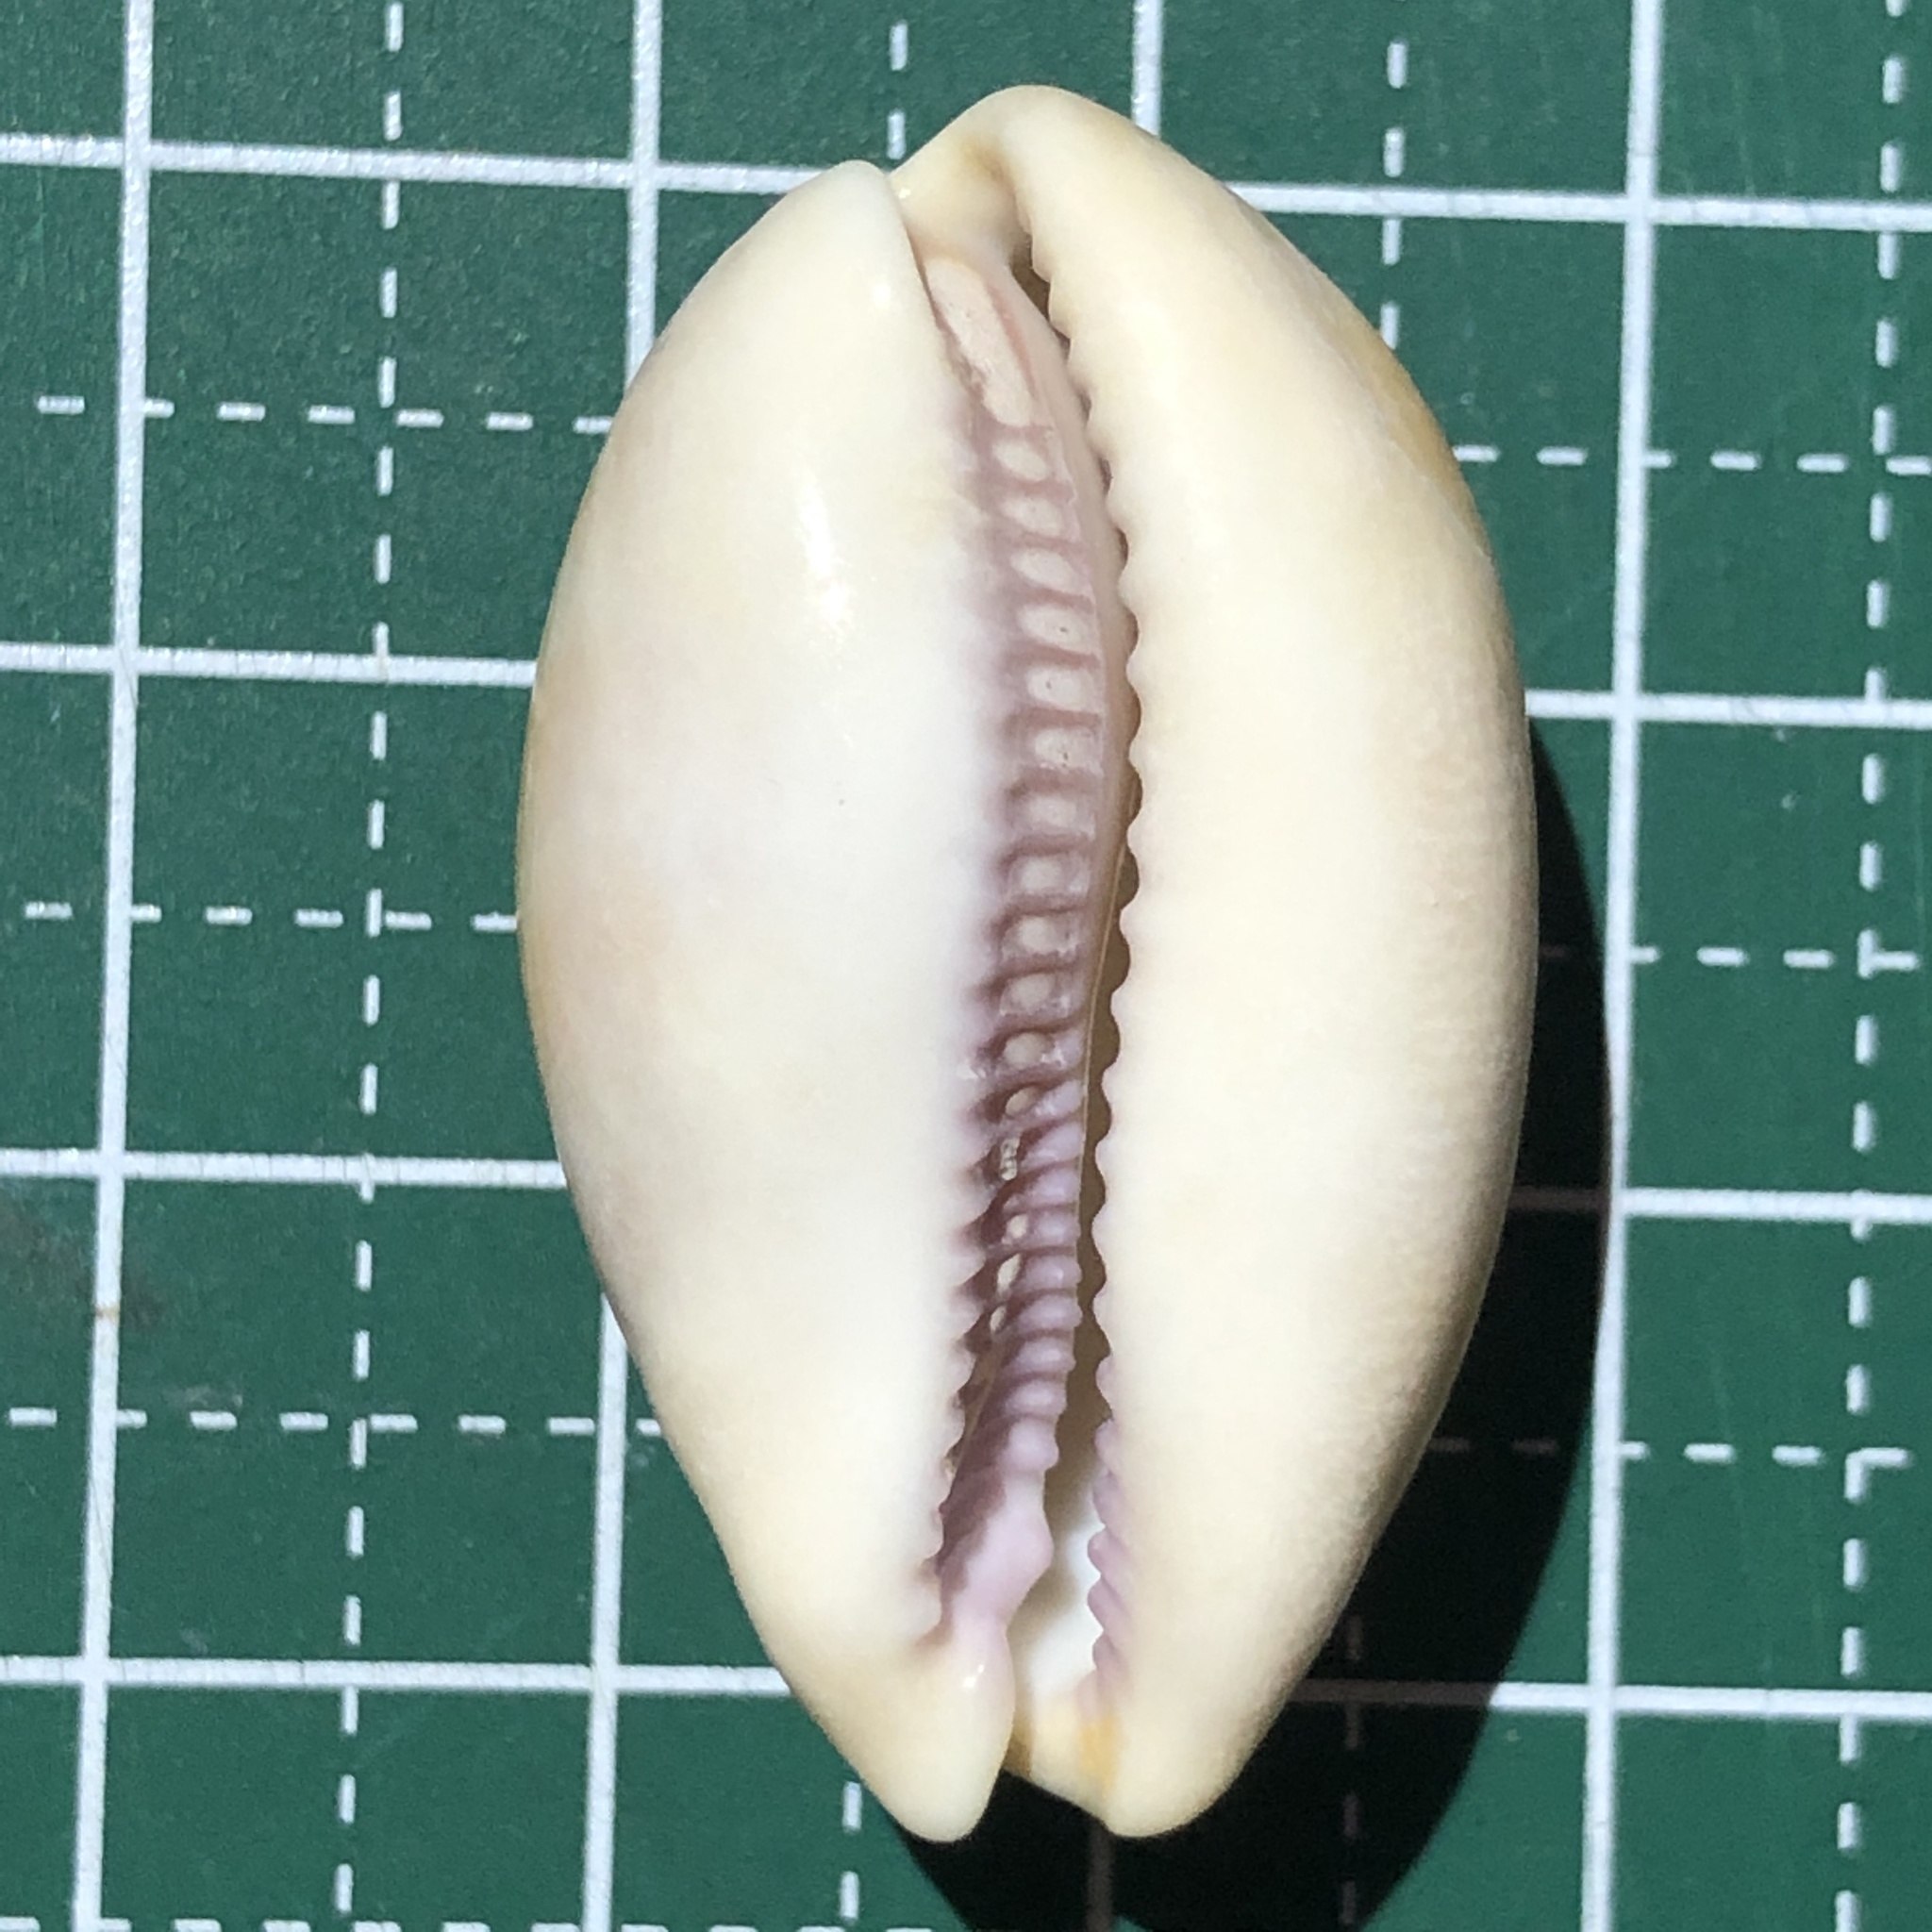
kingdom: Animalia
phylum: Mollusca
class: Gastropoda
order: Littorinimorpha
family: Cypraeidae
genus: Lyncina
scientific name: Lyncina carneola
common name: Purple-mouthed cowry
